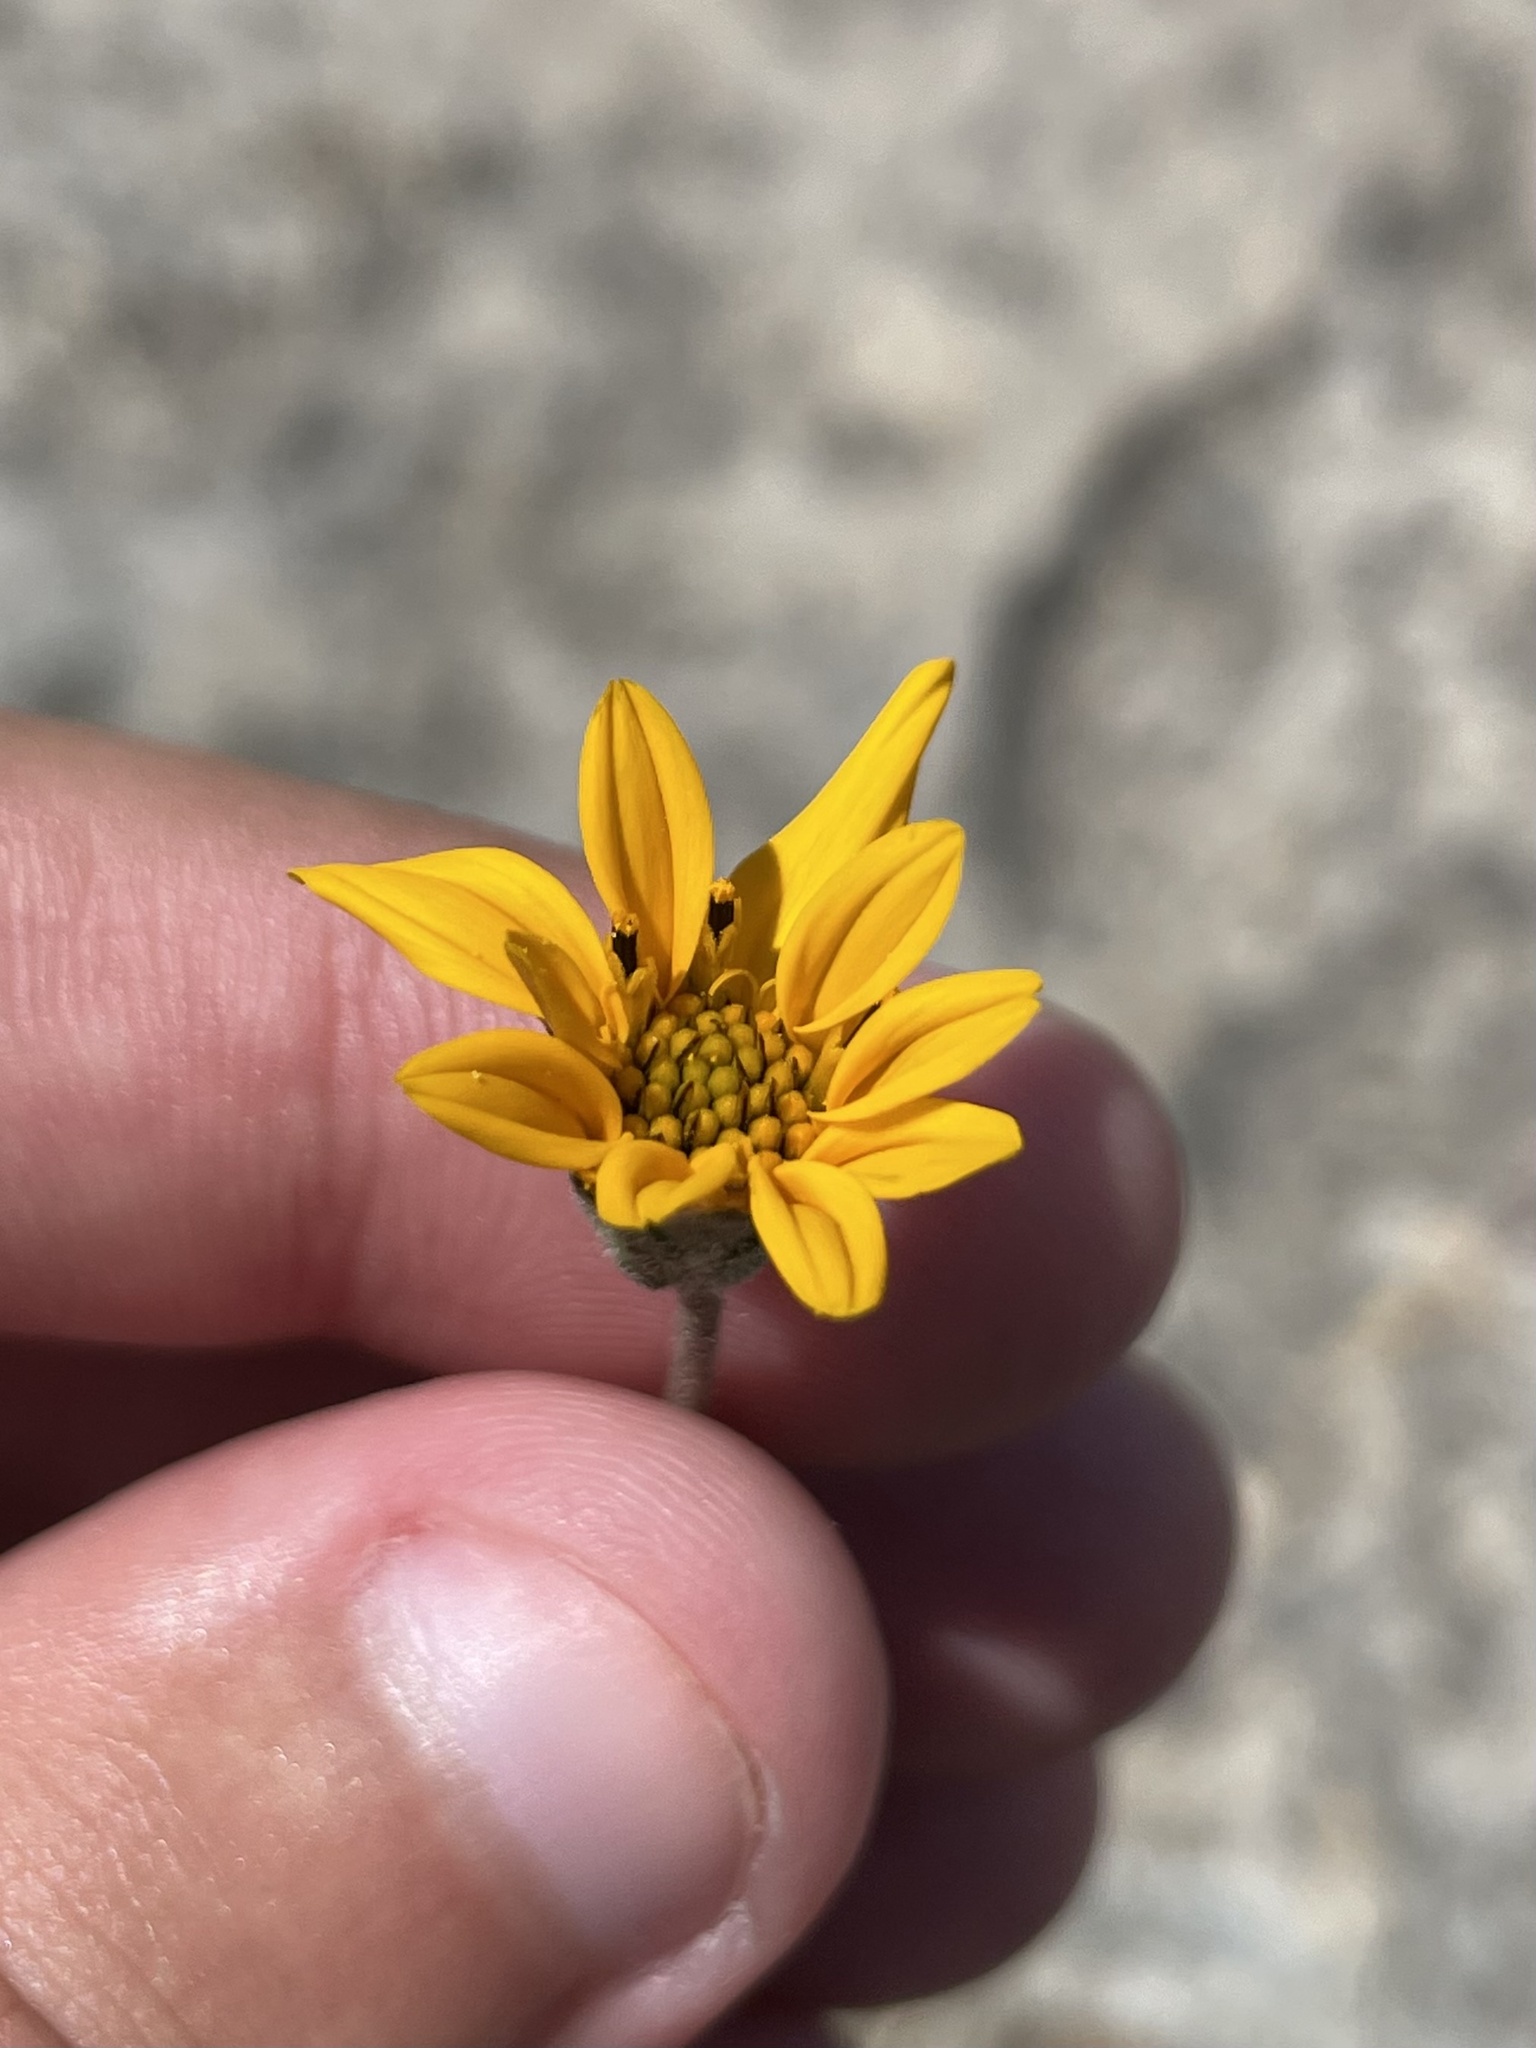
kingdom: Plantae
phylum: Tracheophyta
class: Magnoliopsida
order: Asterales
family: Asteraceae
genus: Wedelia
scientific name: Wedelia acapulcensis
